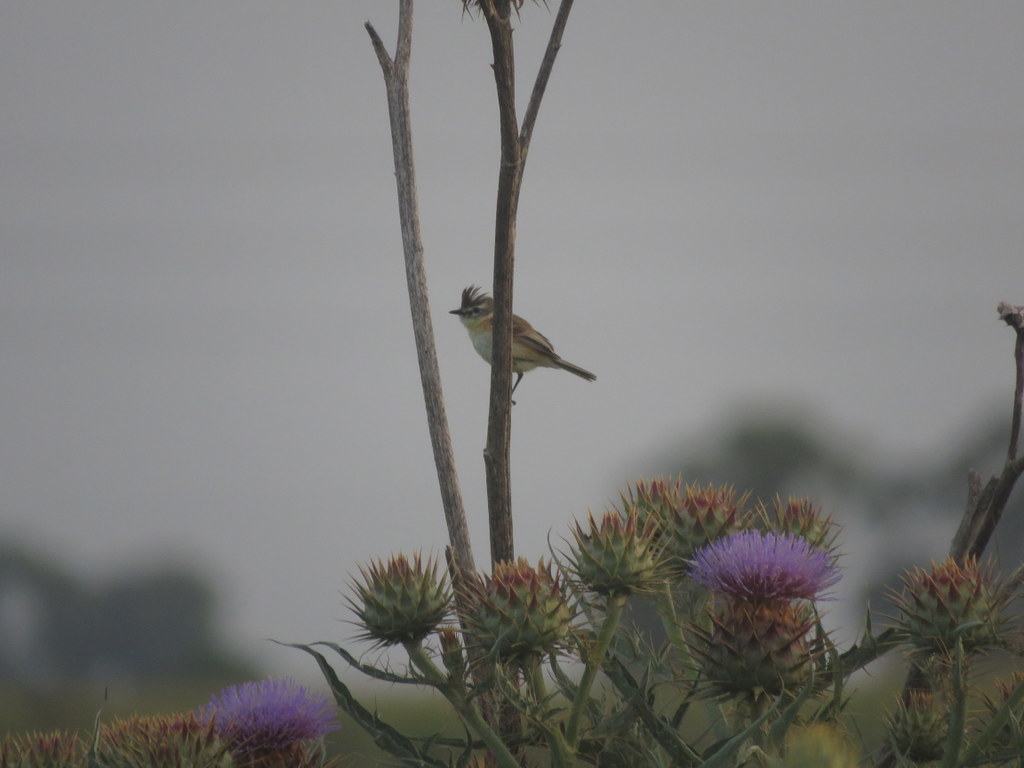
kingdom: Animalia
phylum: Chordata
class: Aves
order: Passeriformes
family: Tyrannidae
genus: Polystictus
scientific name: Polystictus pectoralis
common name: Bearded tachuri
